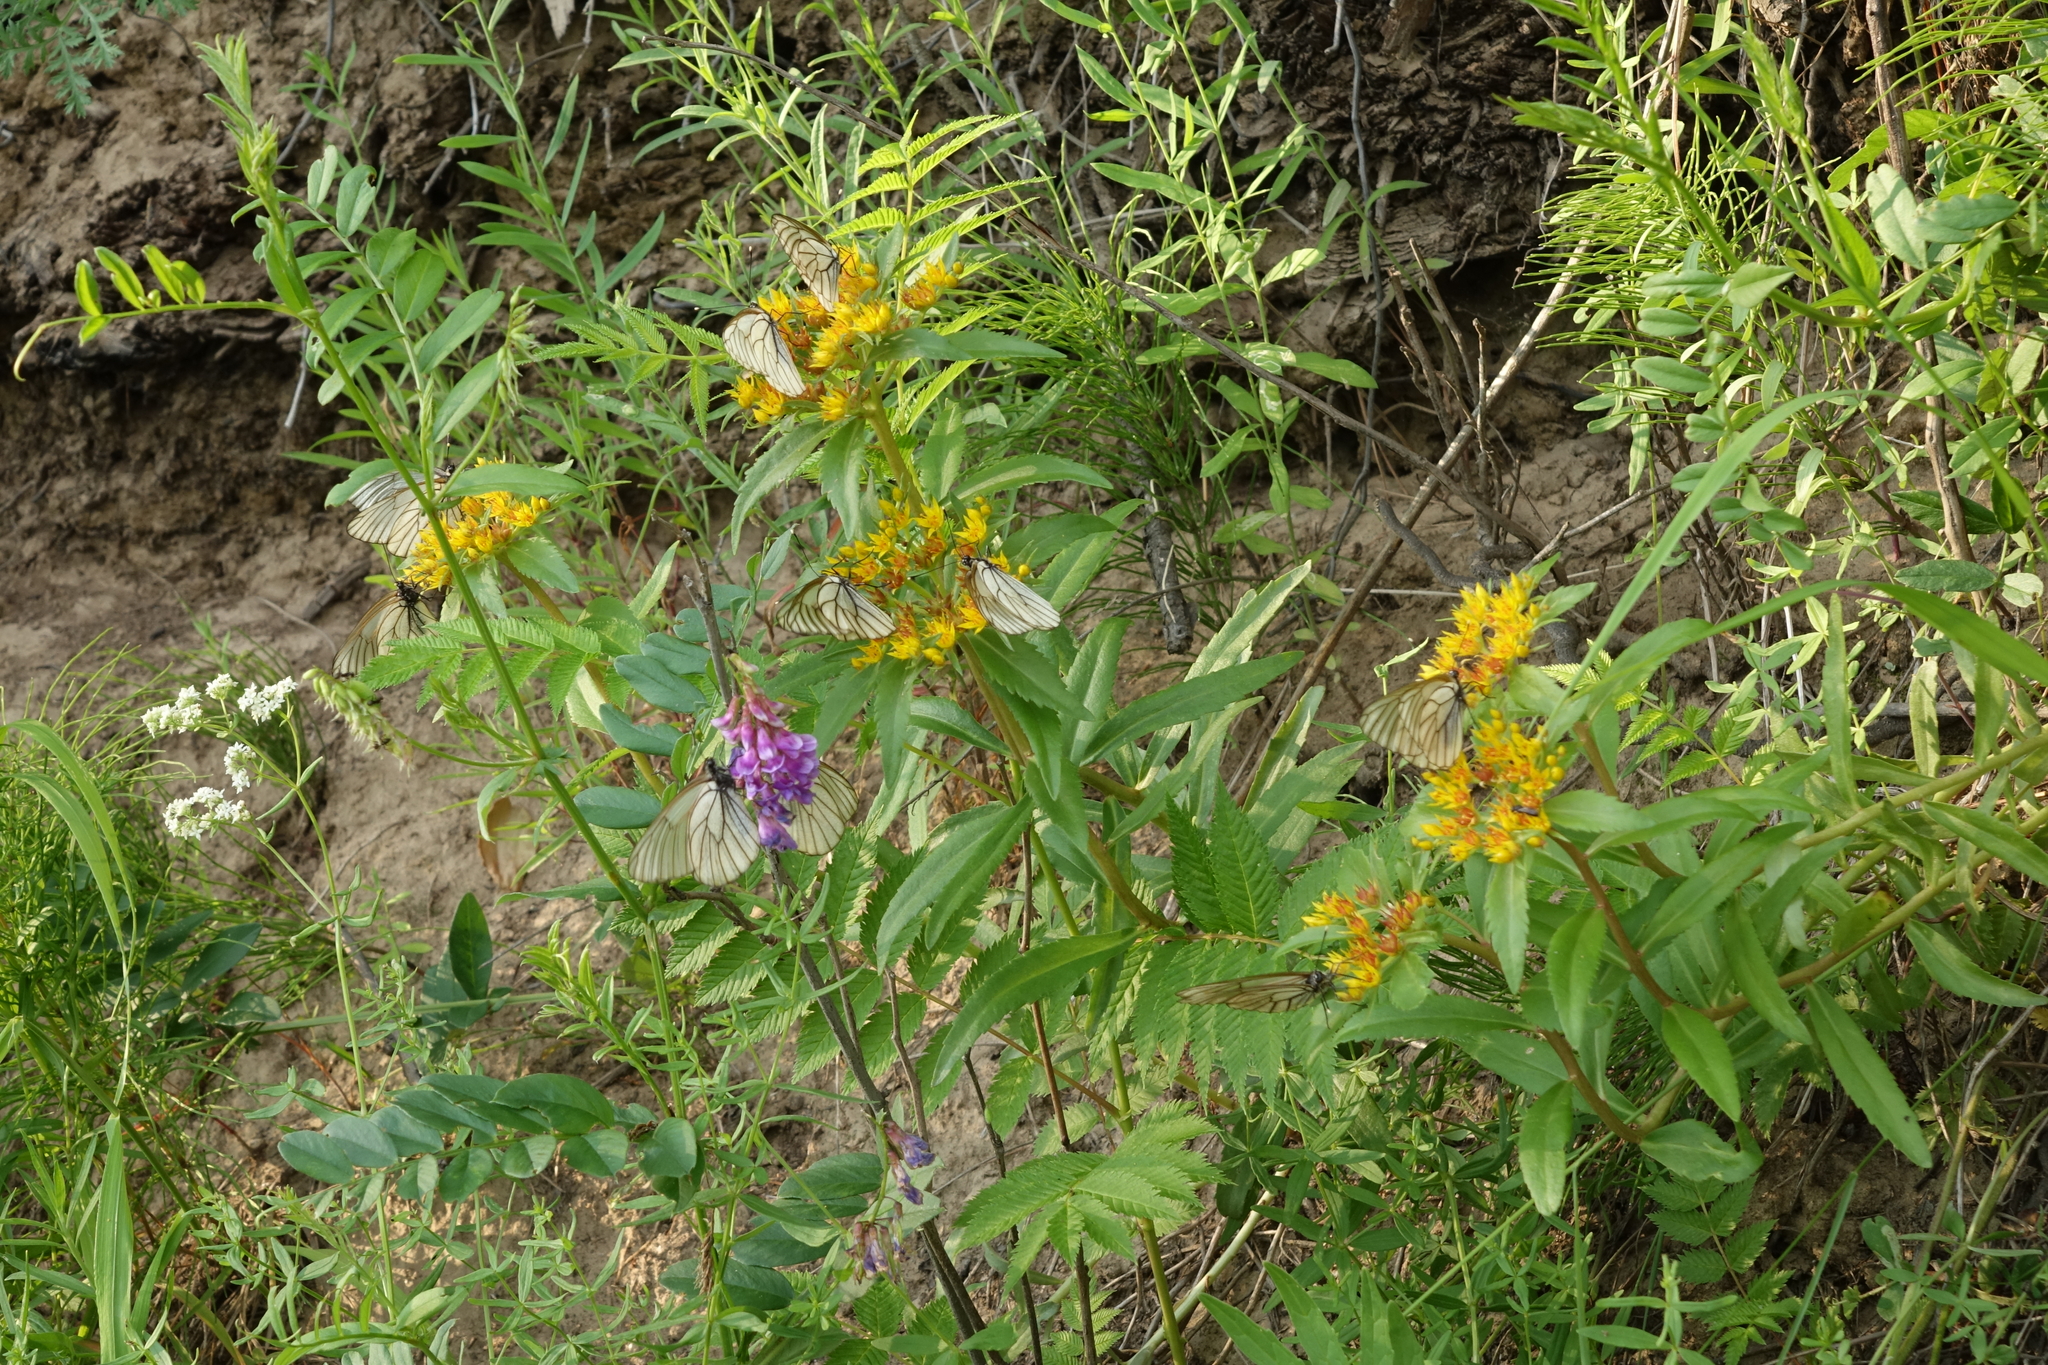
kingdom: Plantae
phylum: Tracheophyta
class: Magnoliopsida
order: Saxifragales
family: Crassulaceae
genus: Phedimus
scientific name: Phedimus aizoon
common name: Orpin aizoon
